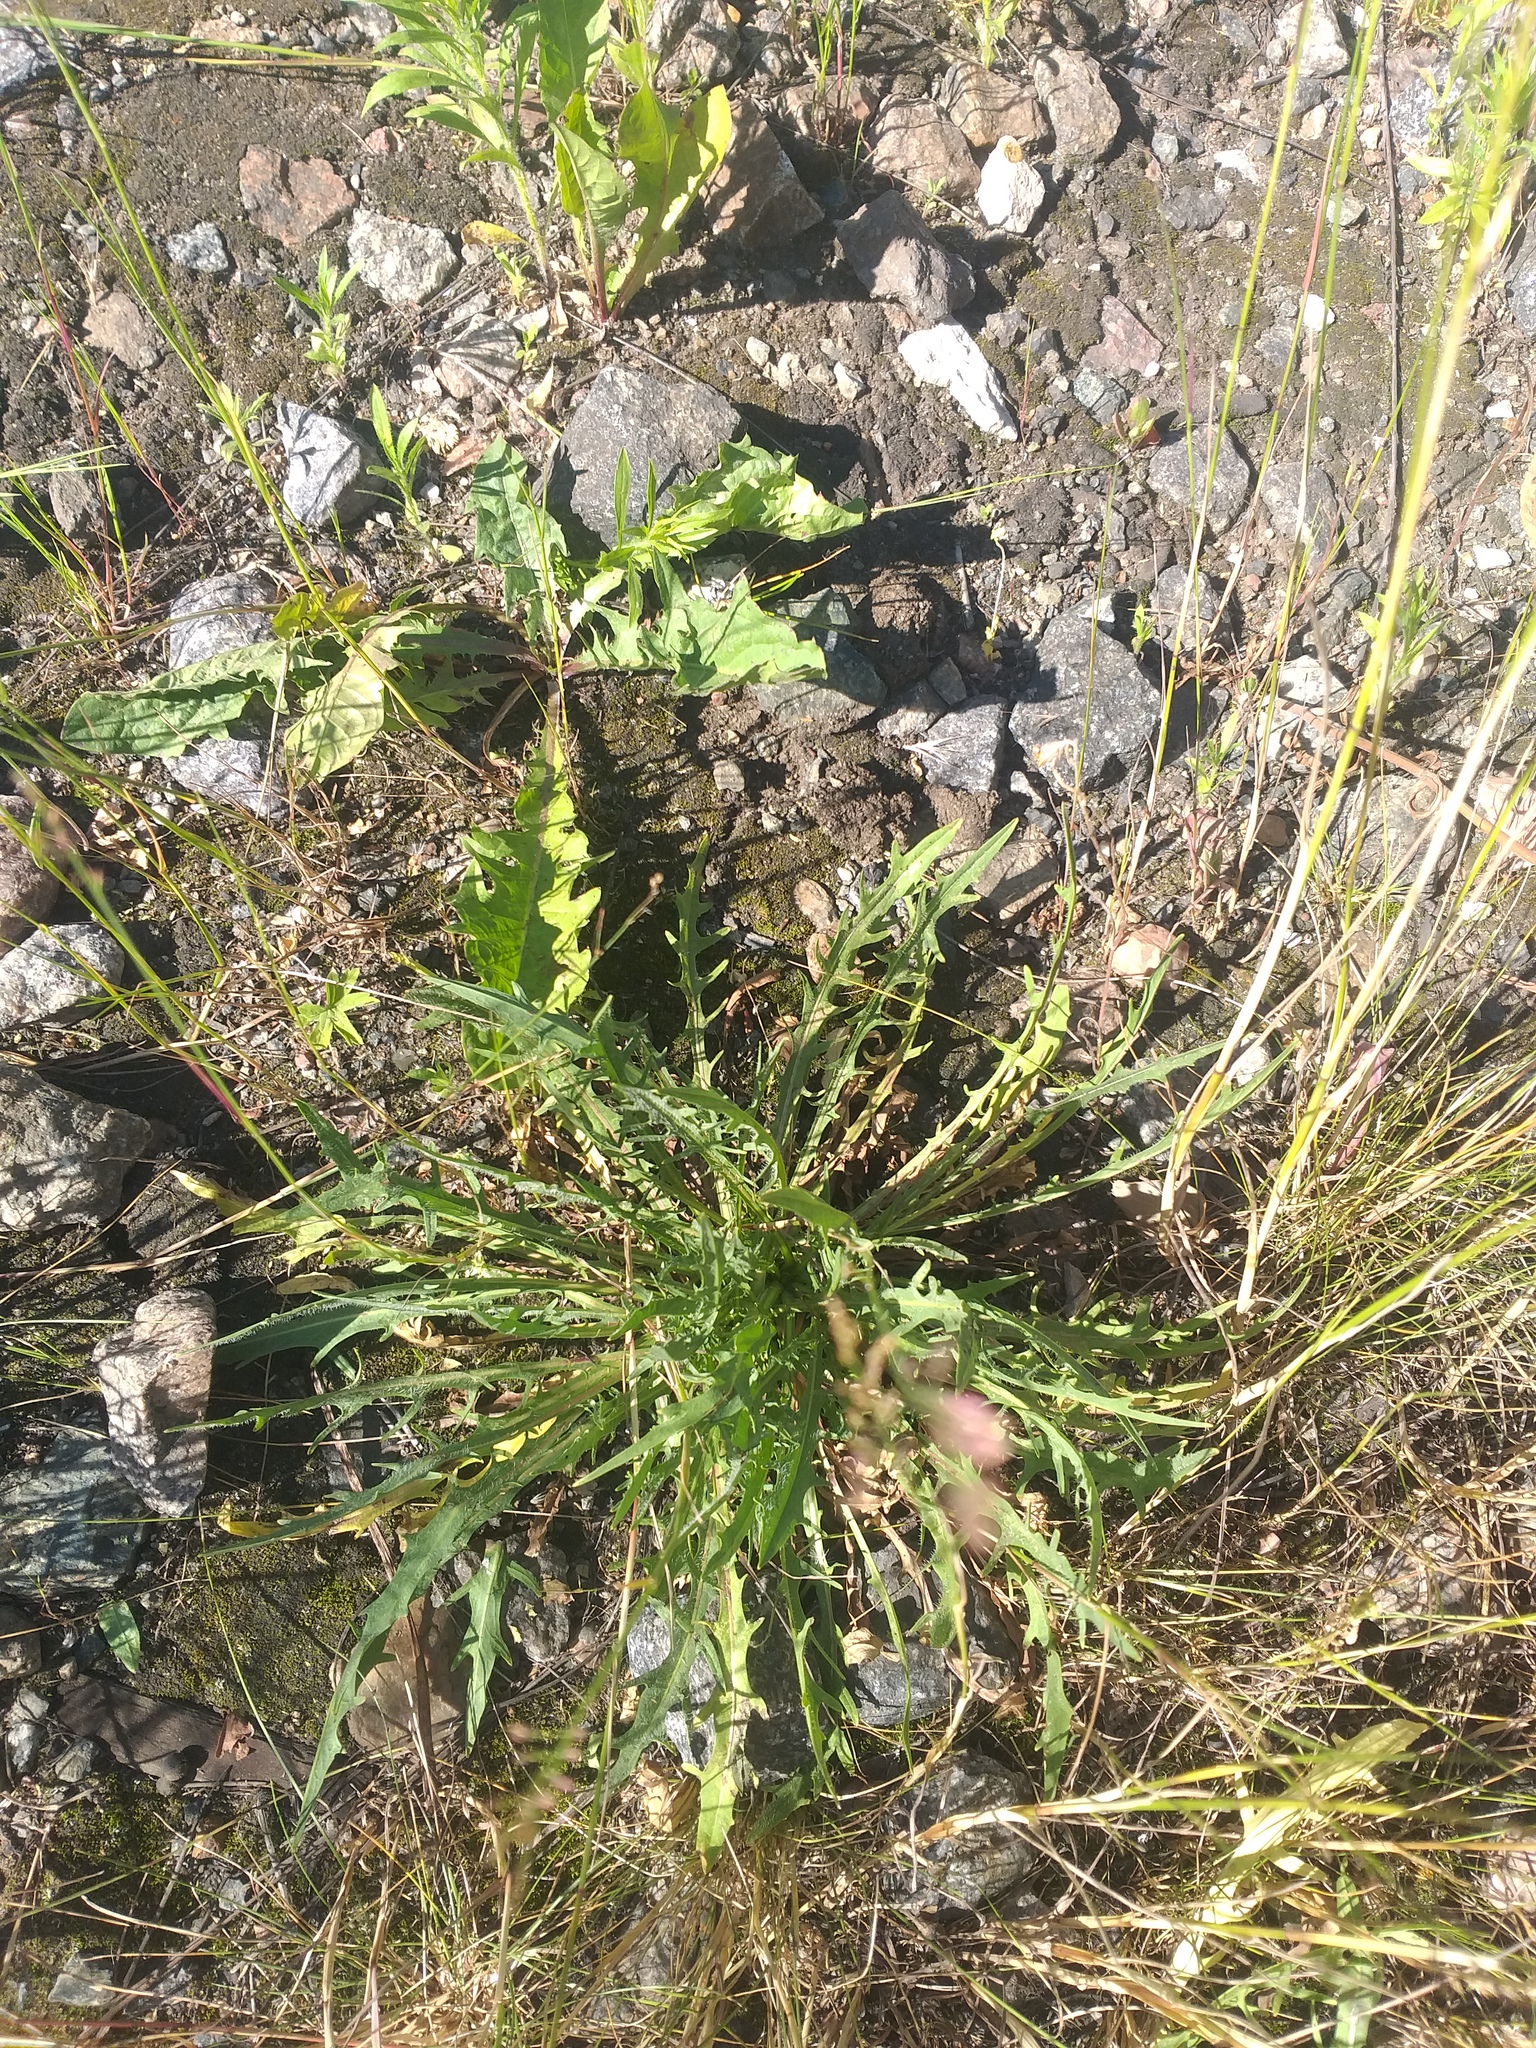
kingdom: Plantae
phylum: Tracheophyta
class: Magnoliopsida
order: Asterales
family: Asteraceae
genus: Scorzoneroides
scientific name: Scorzoneroides autumnalis
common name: Autumn hawkbit
